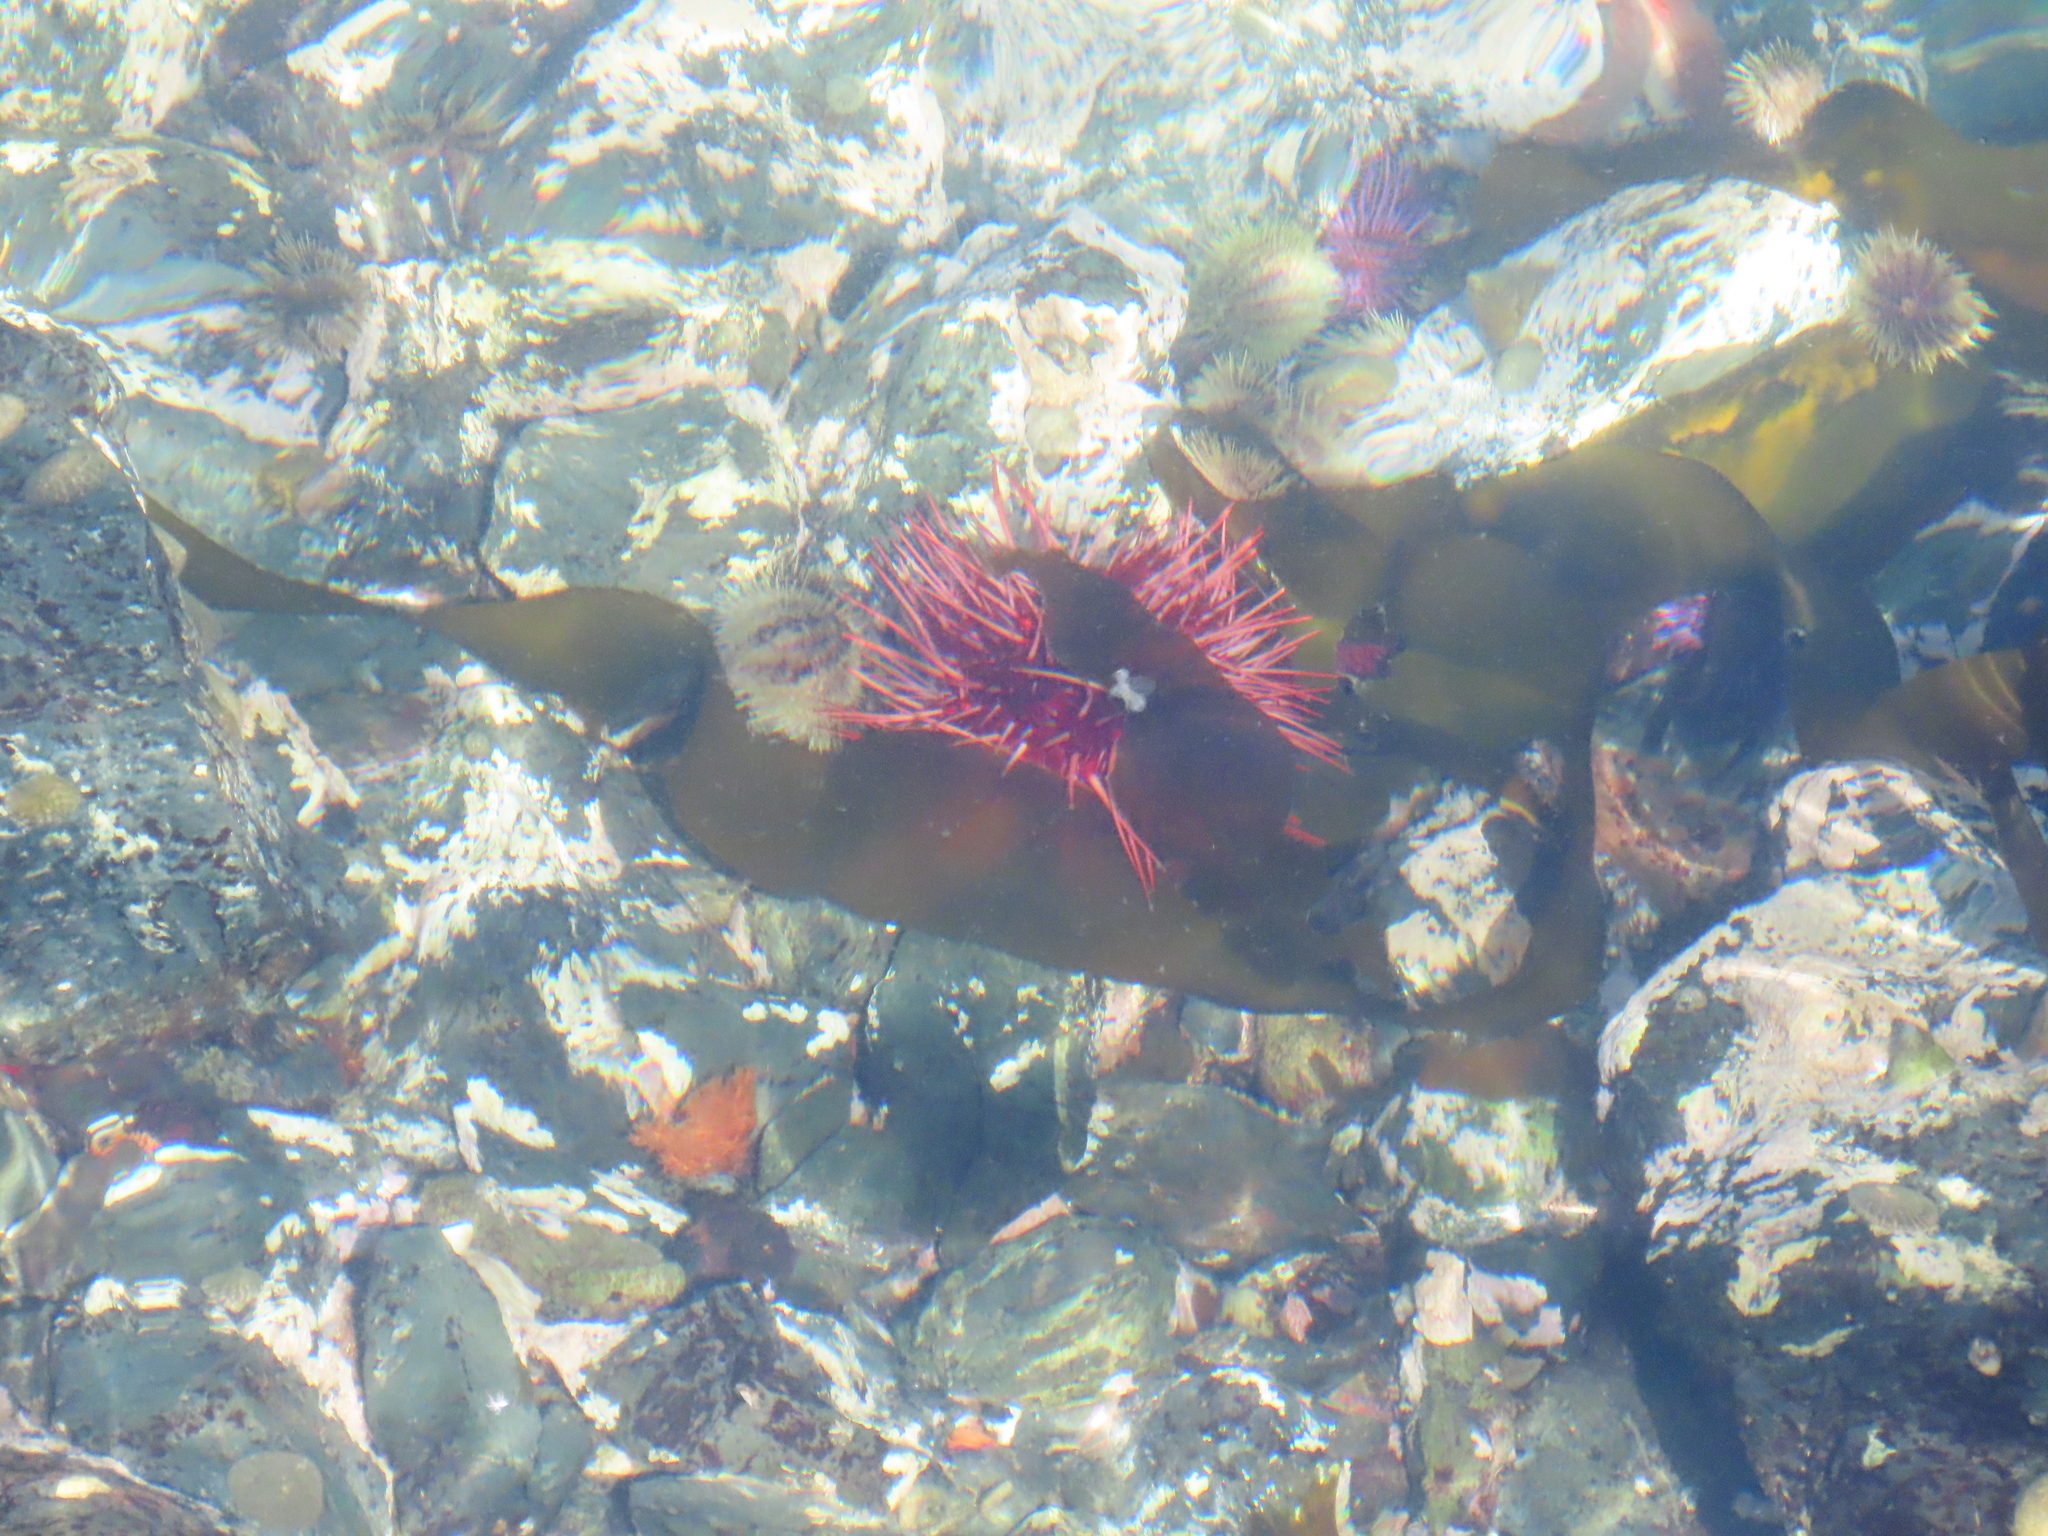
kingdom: Animalia
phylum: Echinodermata
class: Echinoidea
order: Camarodonta
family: Strongylocentrotidae
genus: Mesocentrotus
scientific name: Mesocentrotus franciscanus
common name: Red sea urchin
